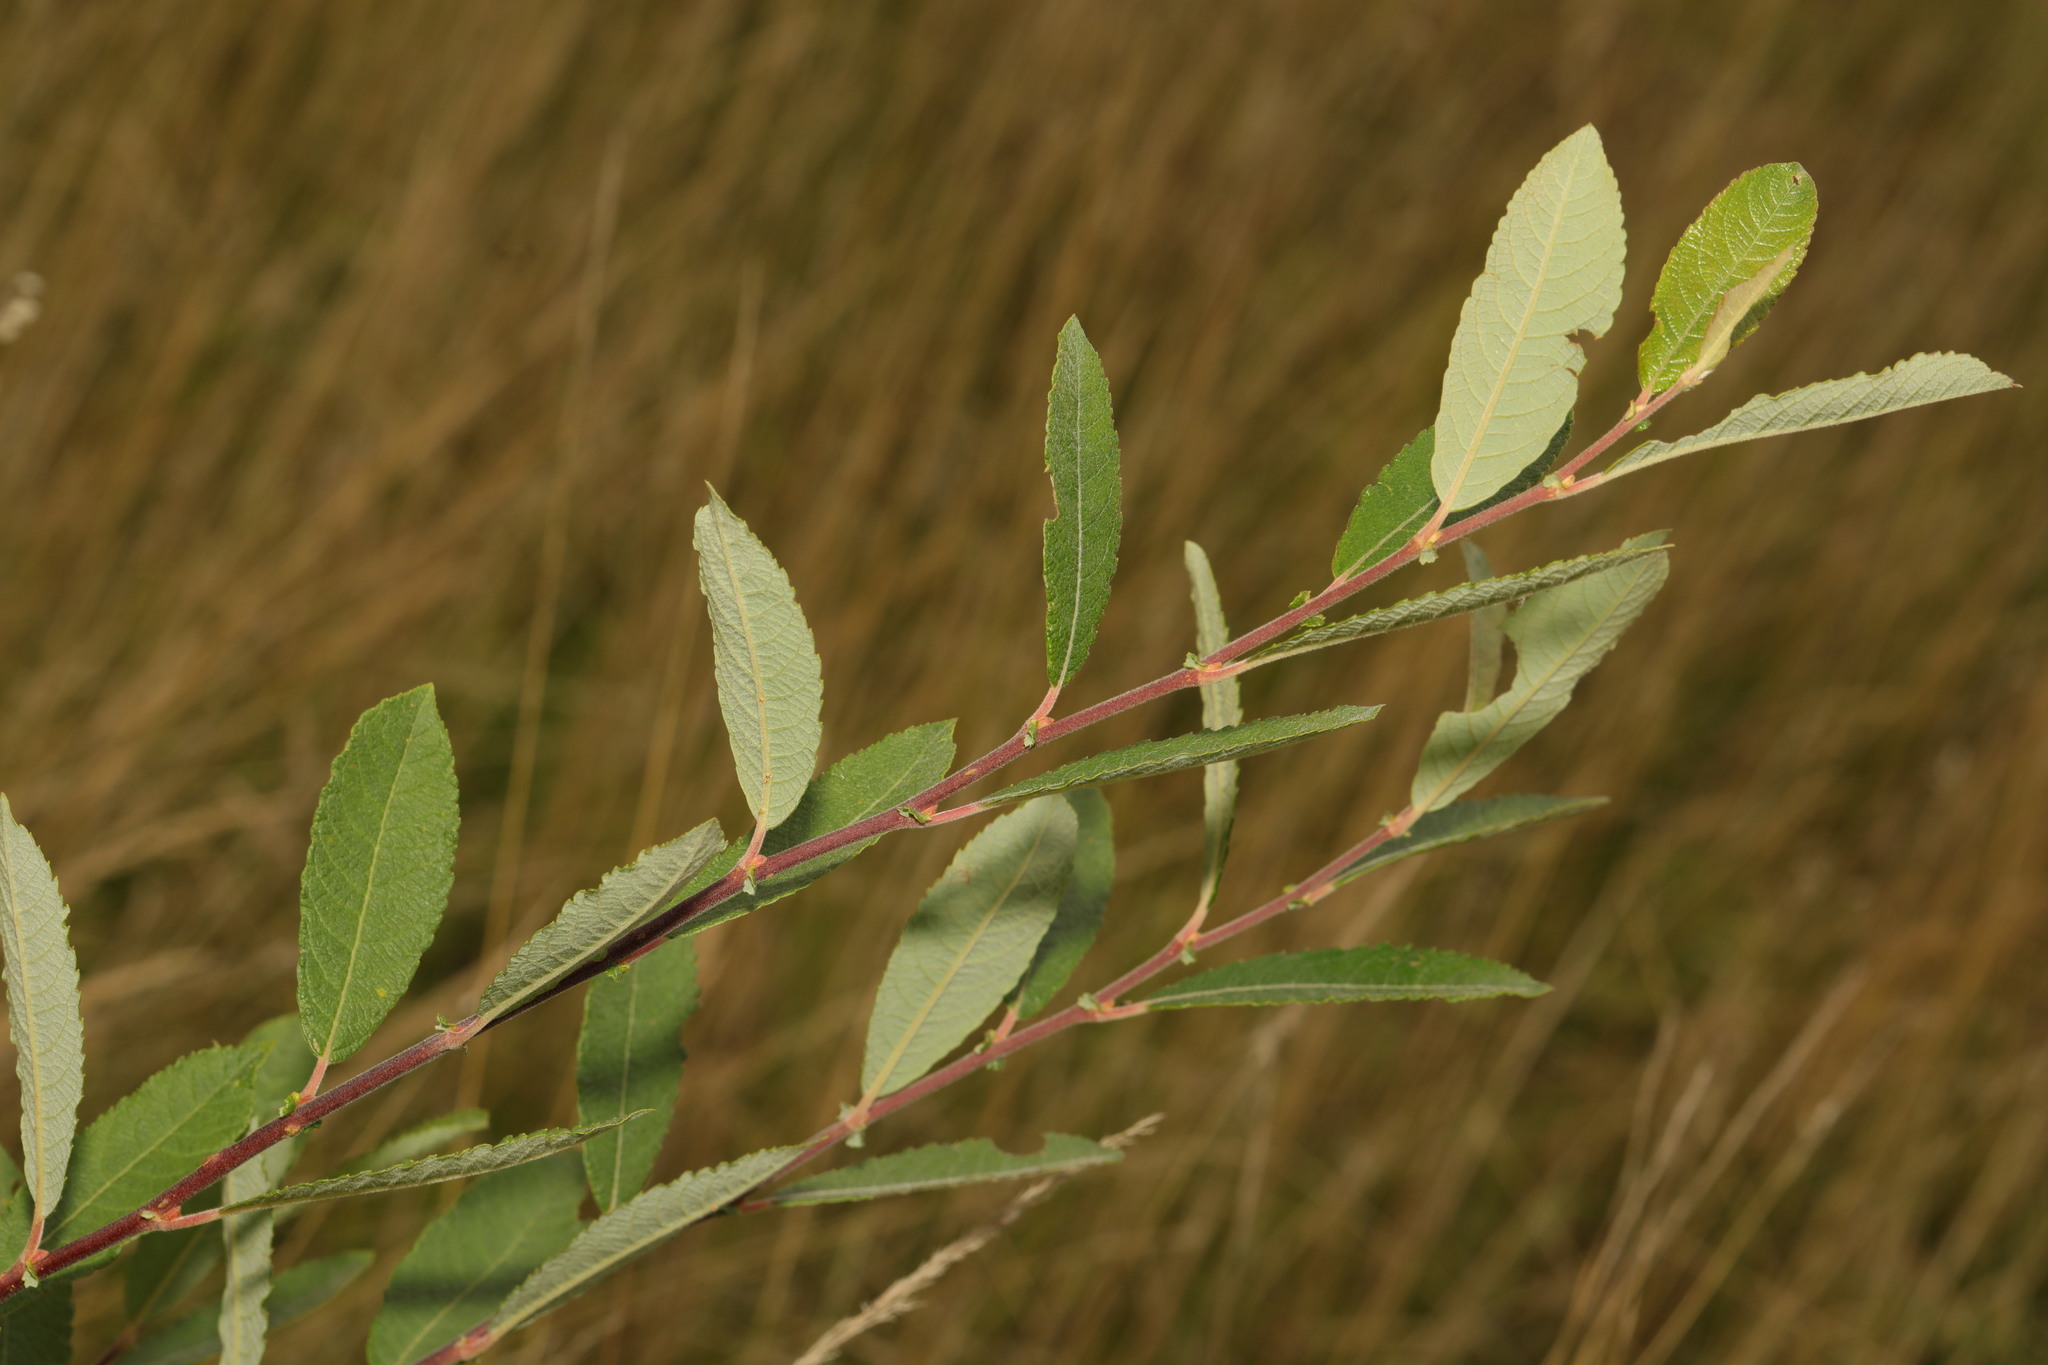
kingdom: Plantae
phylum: Tracheophyta
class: Magnoliopsida
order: Malpighiales
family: Salicaceae
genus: Salix
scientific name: Salix cinerea
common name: Common sallow
